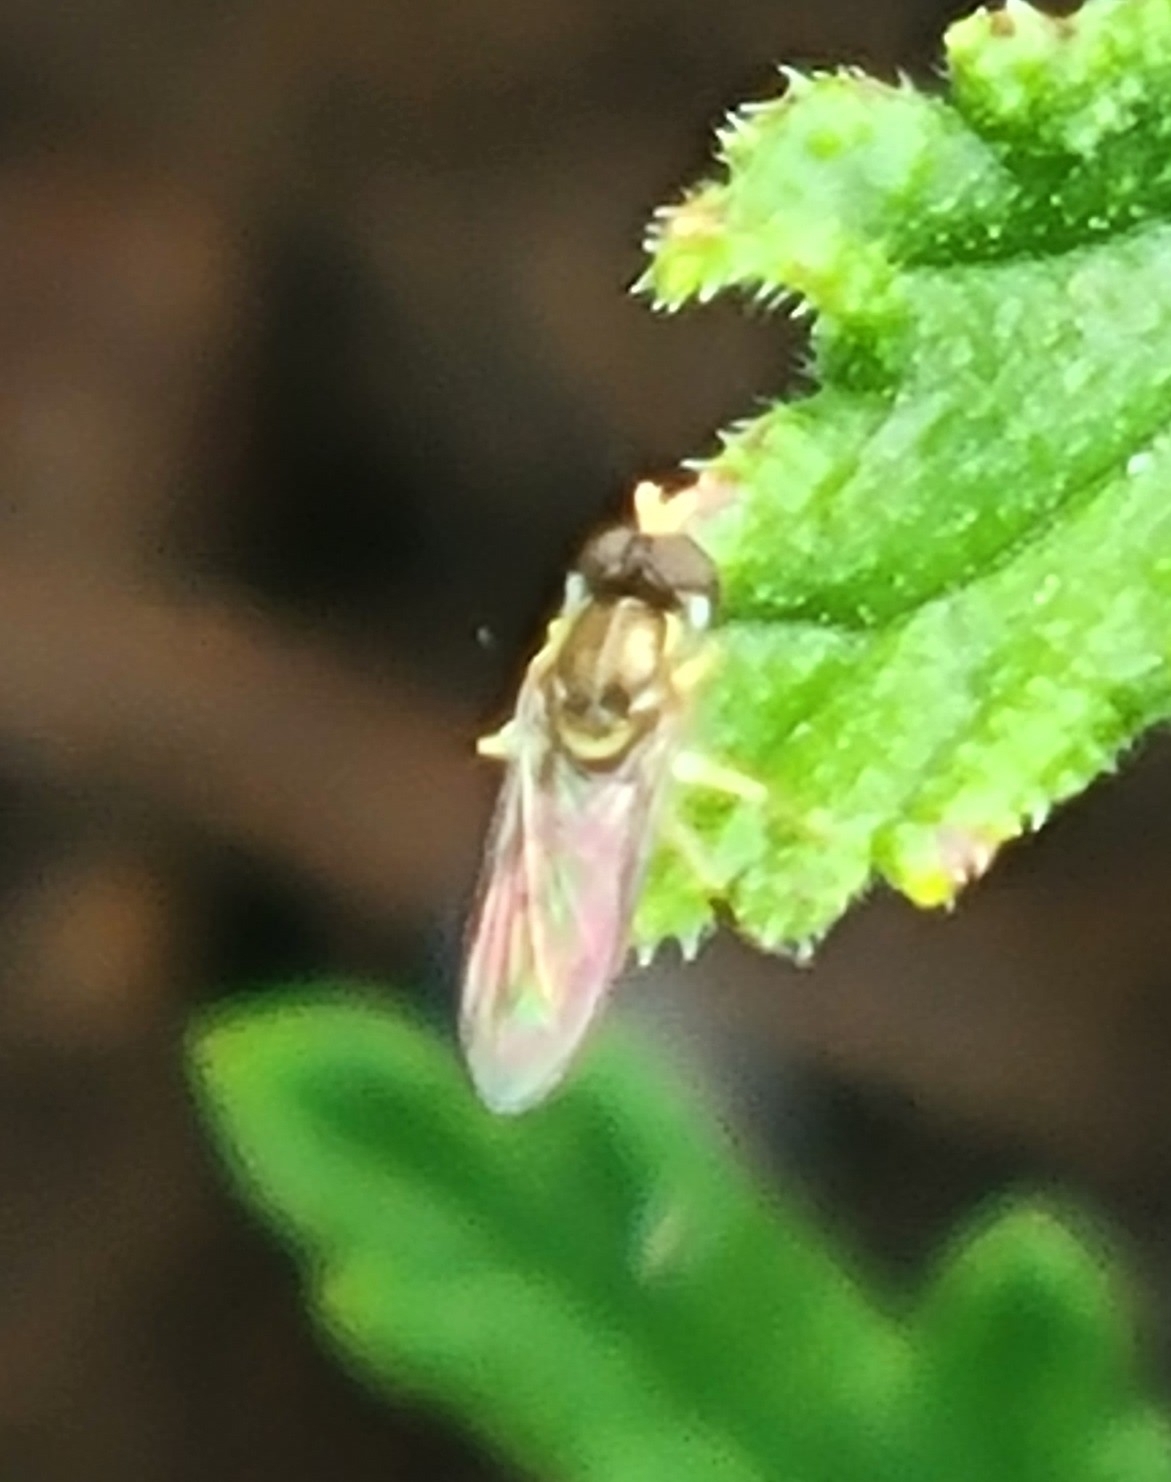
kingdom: Animalia
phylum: Arthropoda
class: Insecta
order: Diptera
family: Syrphidae
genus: Toxomerus
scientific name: Toxomerus marginatus
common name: Syrphid fly
